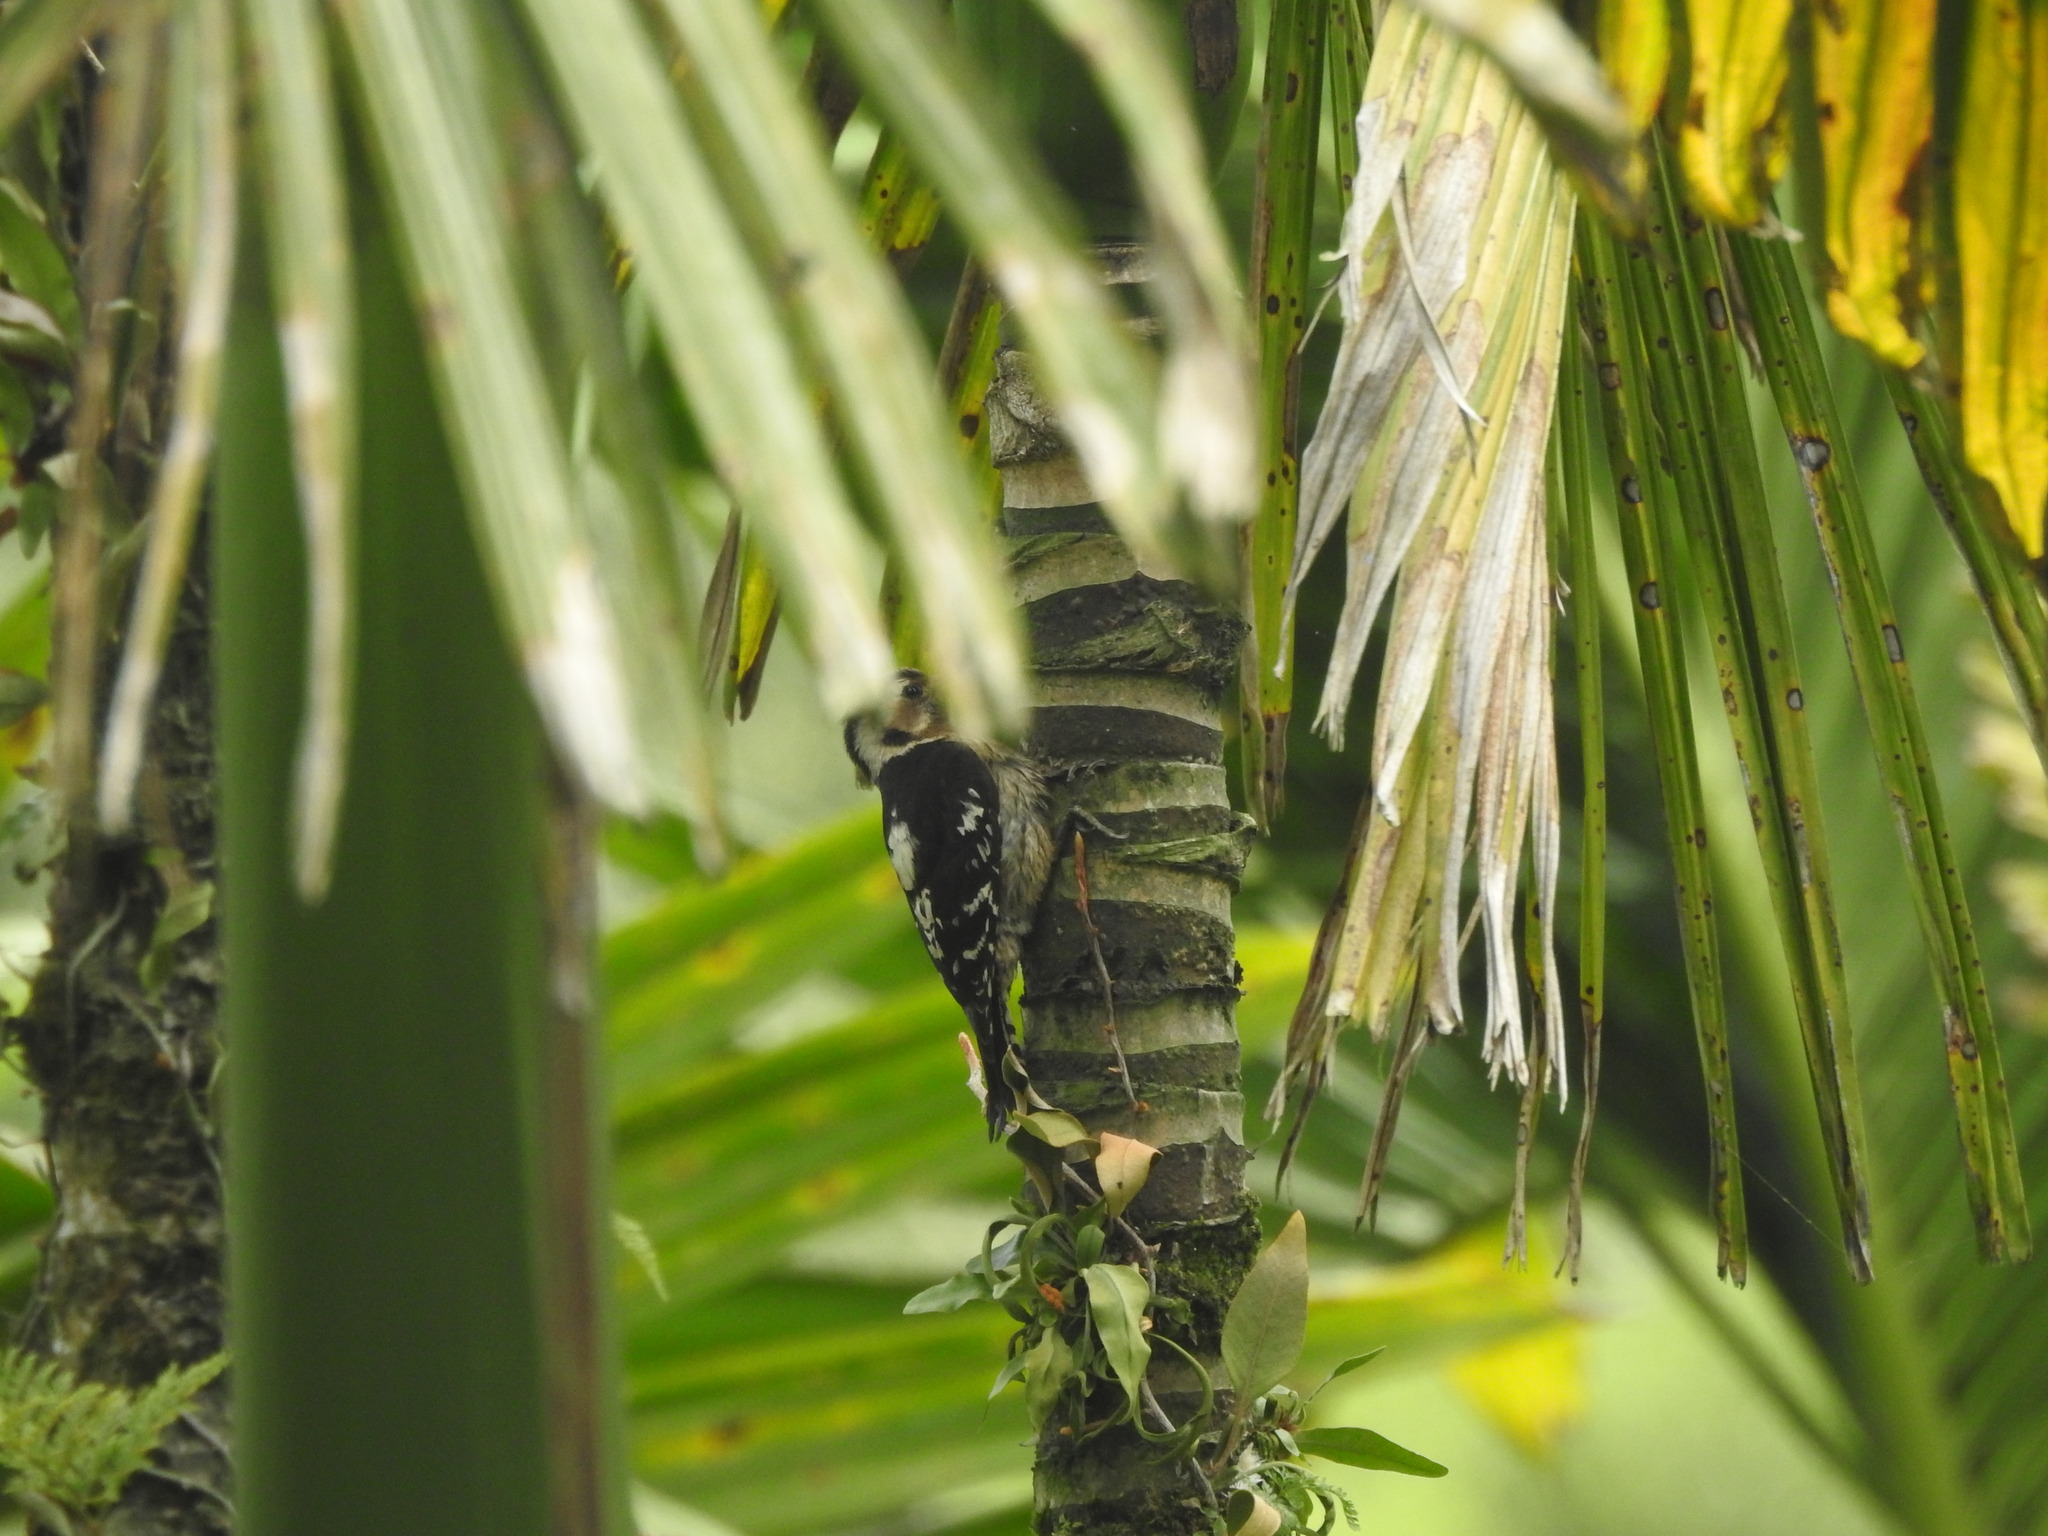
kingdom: Animalia
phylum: Chordata
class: Aves
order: Piciformes
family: Picidae
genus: Yungipicus
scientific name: Yungipicus canicapillus
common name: Grey-capped pygmy woodpecker
